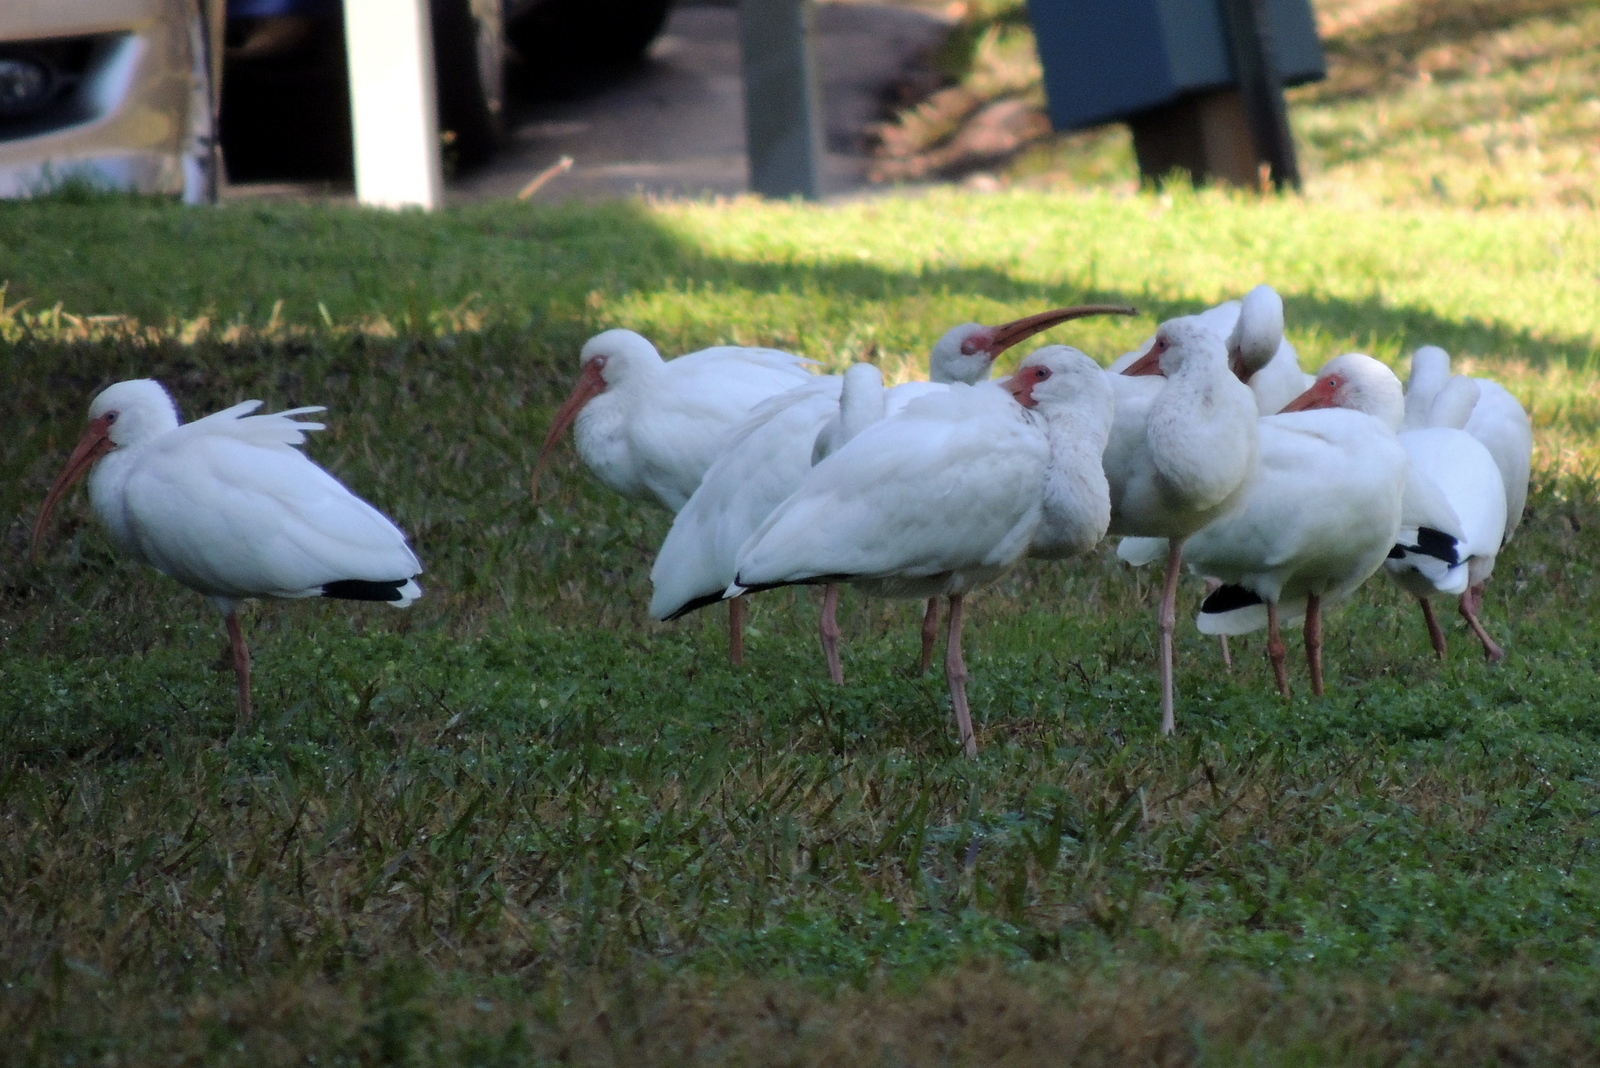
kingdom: Animalia
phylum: Chordata
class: Aves
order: Pelecaniformes
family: Threskiornithidae
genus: Eudocimus
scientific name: Eudocimus albus
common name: White ibis
